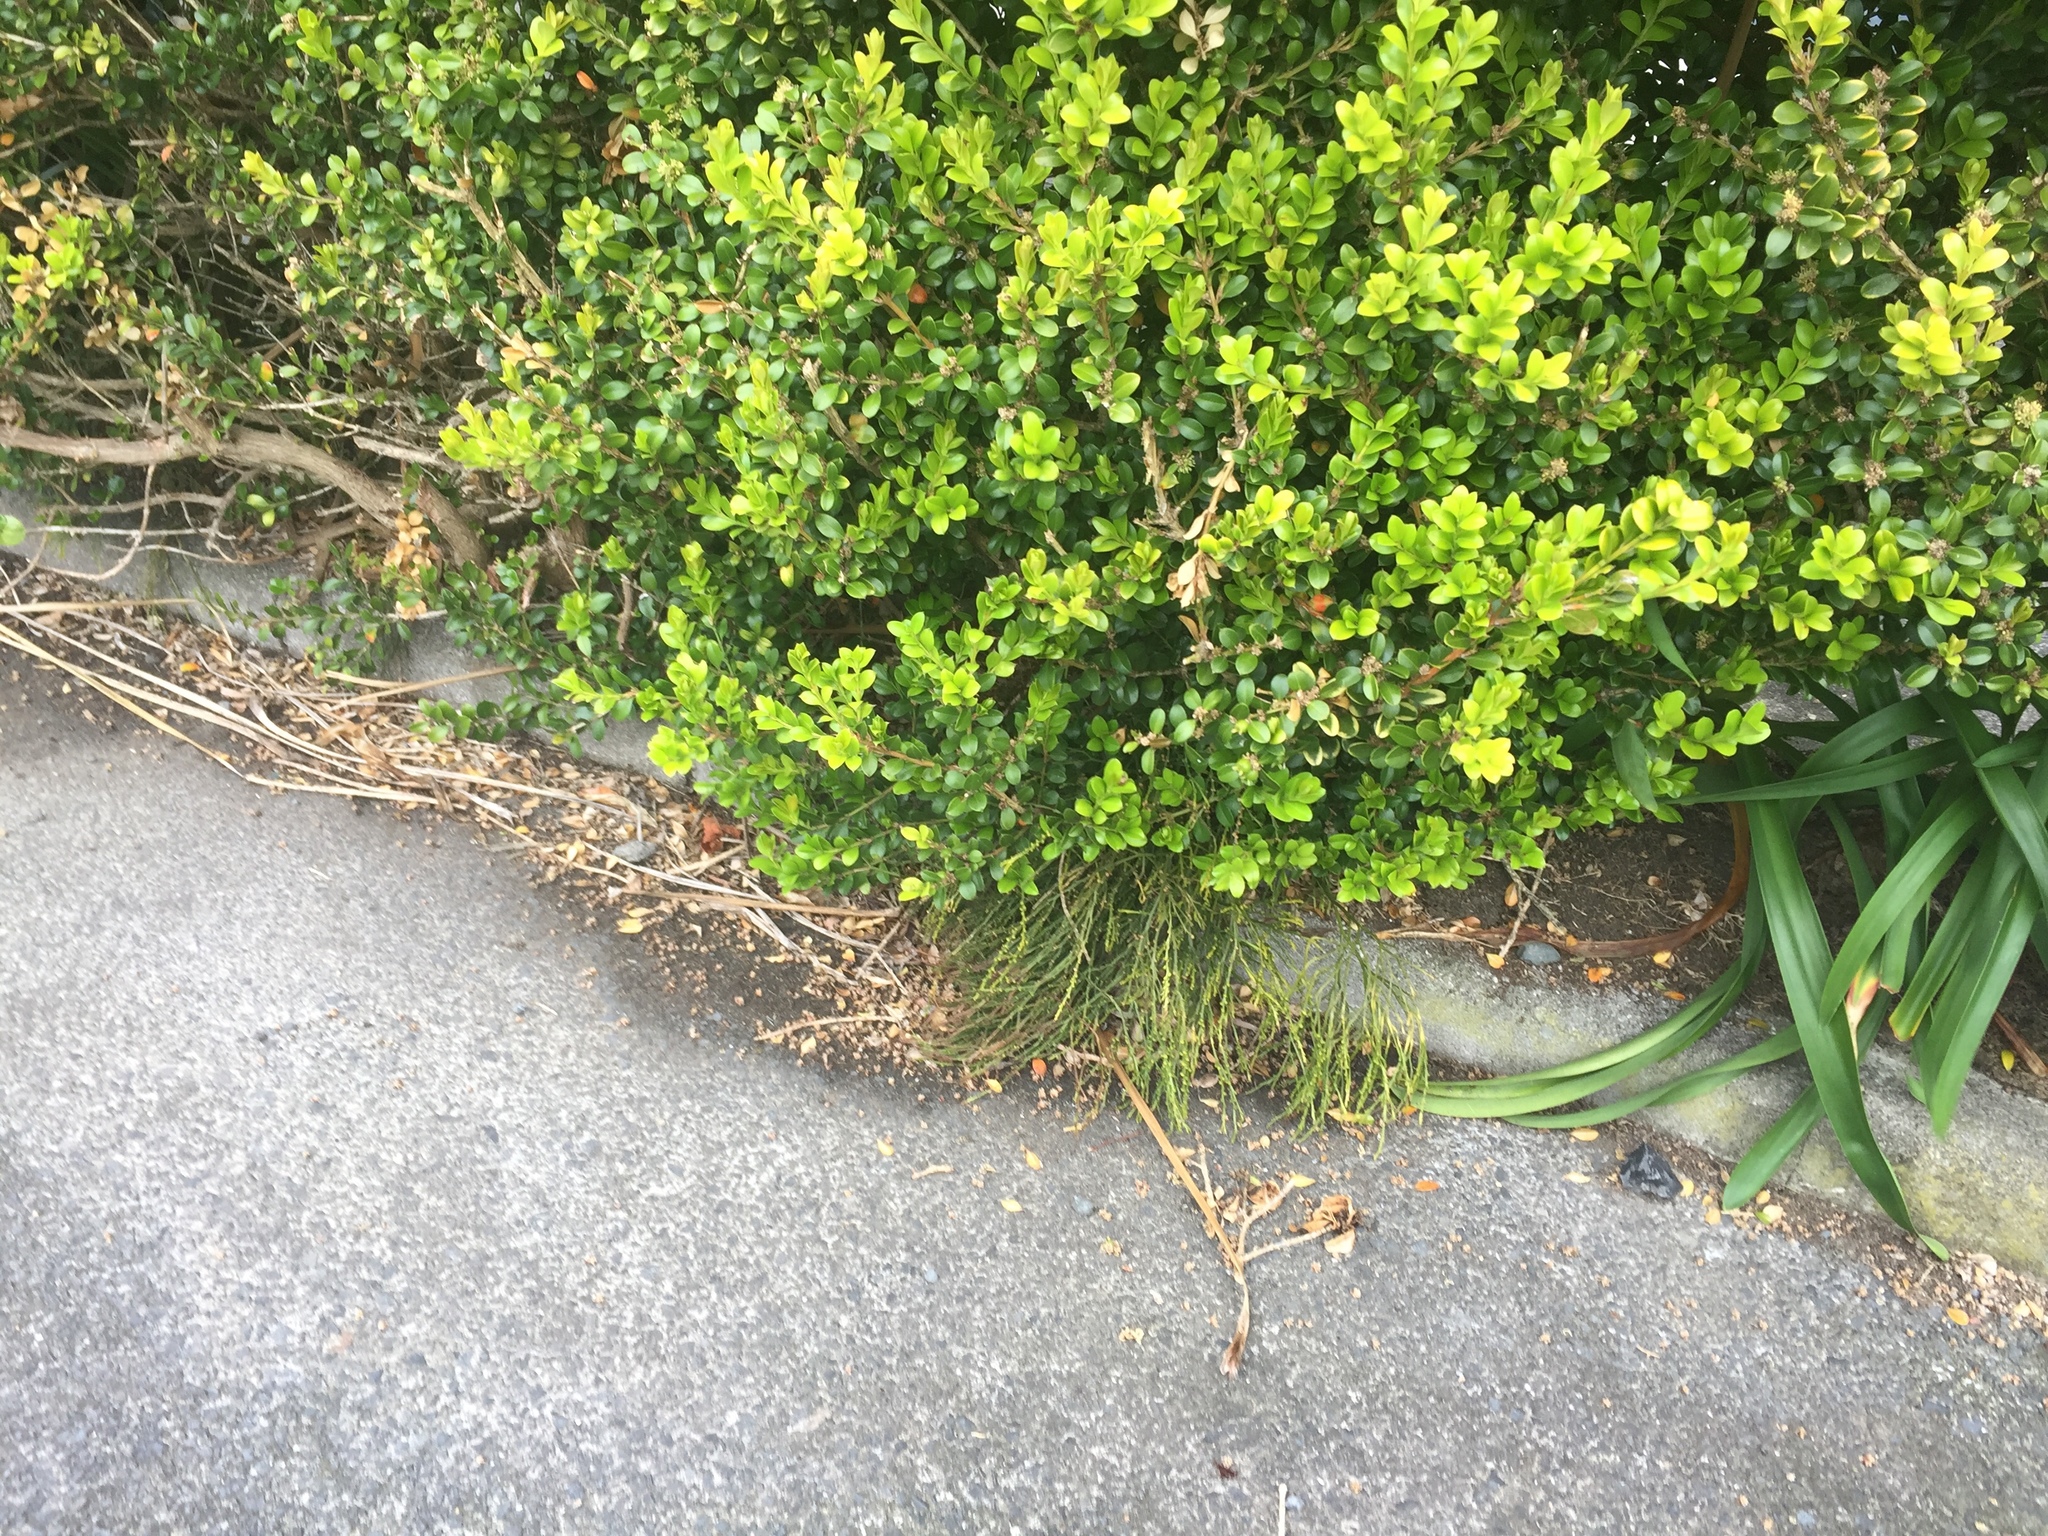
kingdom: Plantae
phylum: Tracheophyta
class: Polypodiopsida
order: Psilotales
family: Psilotaceae
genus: Psilotum
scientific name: Psilotum nudum
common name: Skeleton fork fern
